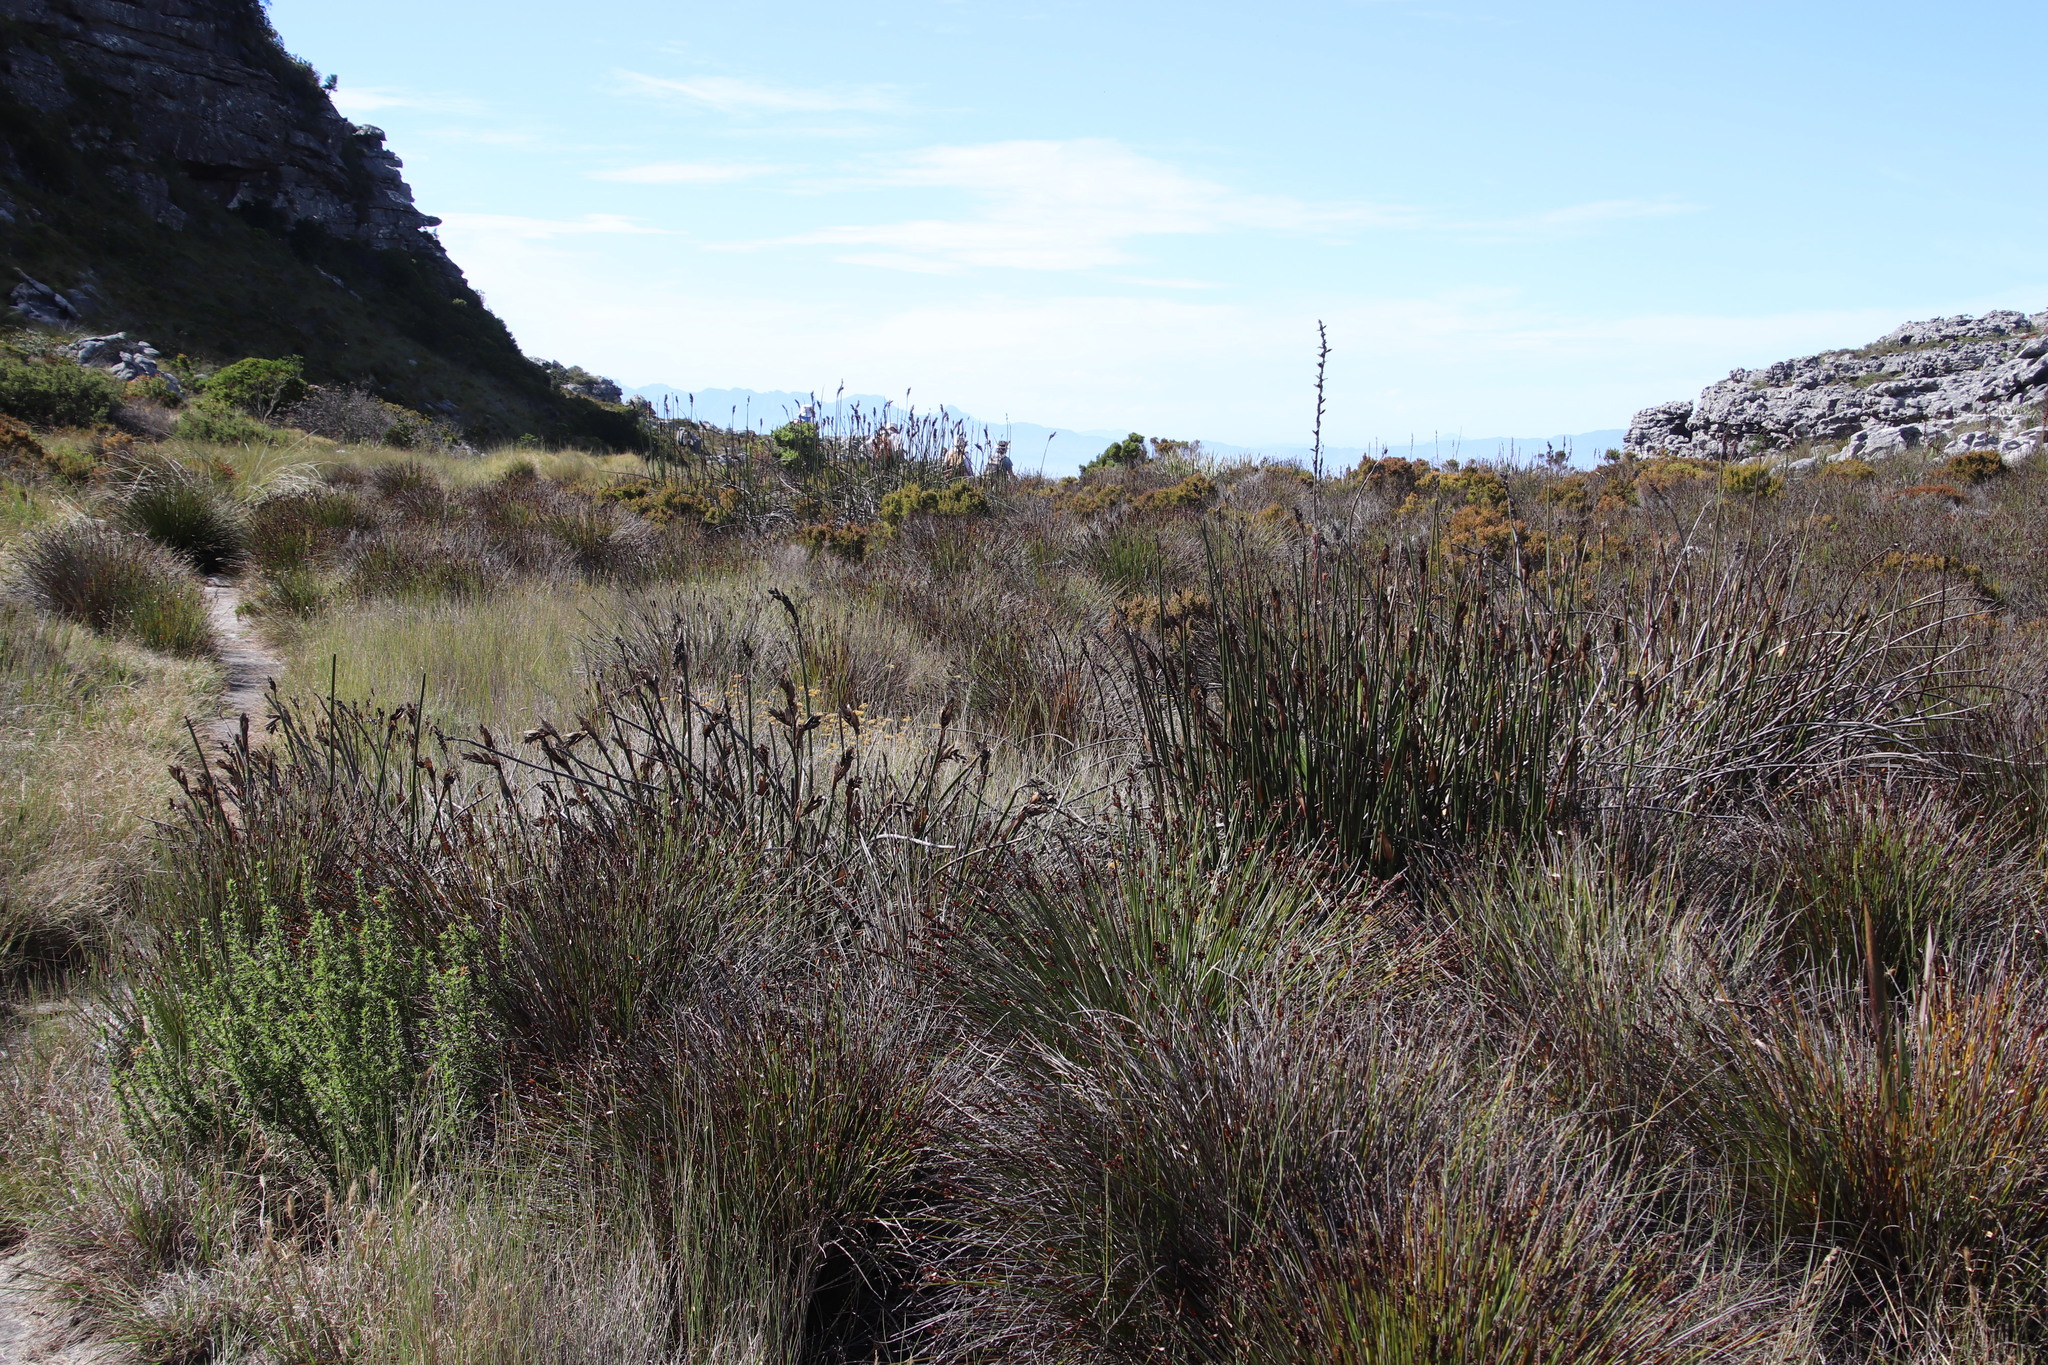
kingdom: Plantae
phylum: Tracheophyta
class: Liliopsida
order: Poales
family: Restionaceae
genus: Elegia
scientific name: Elegia mucronata
